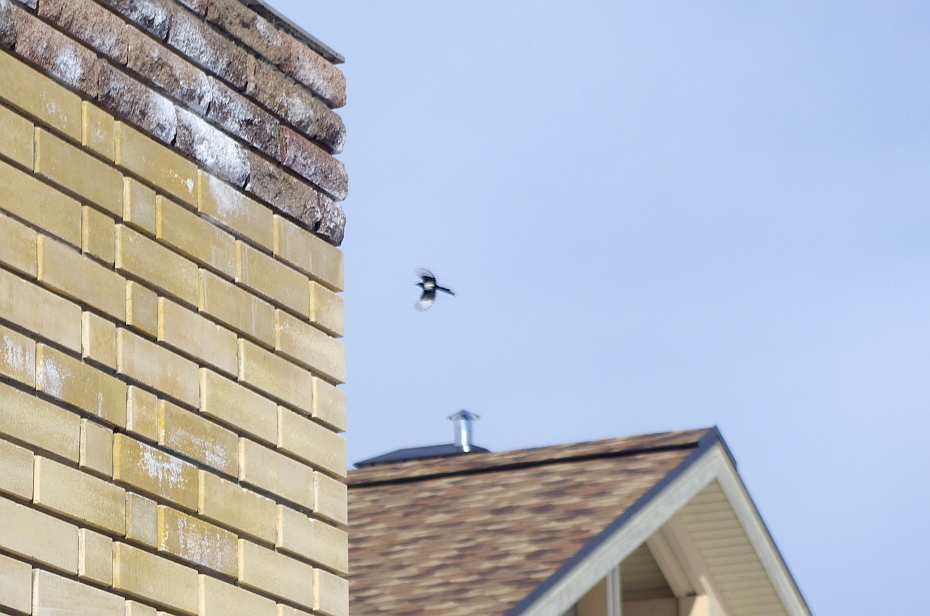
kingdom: Animalia
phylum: Chordata
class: Aves
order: Passeriformes
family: Corvidae
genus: Pica
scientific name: Pica pica
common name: Eurasian magpie
